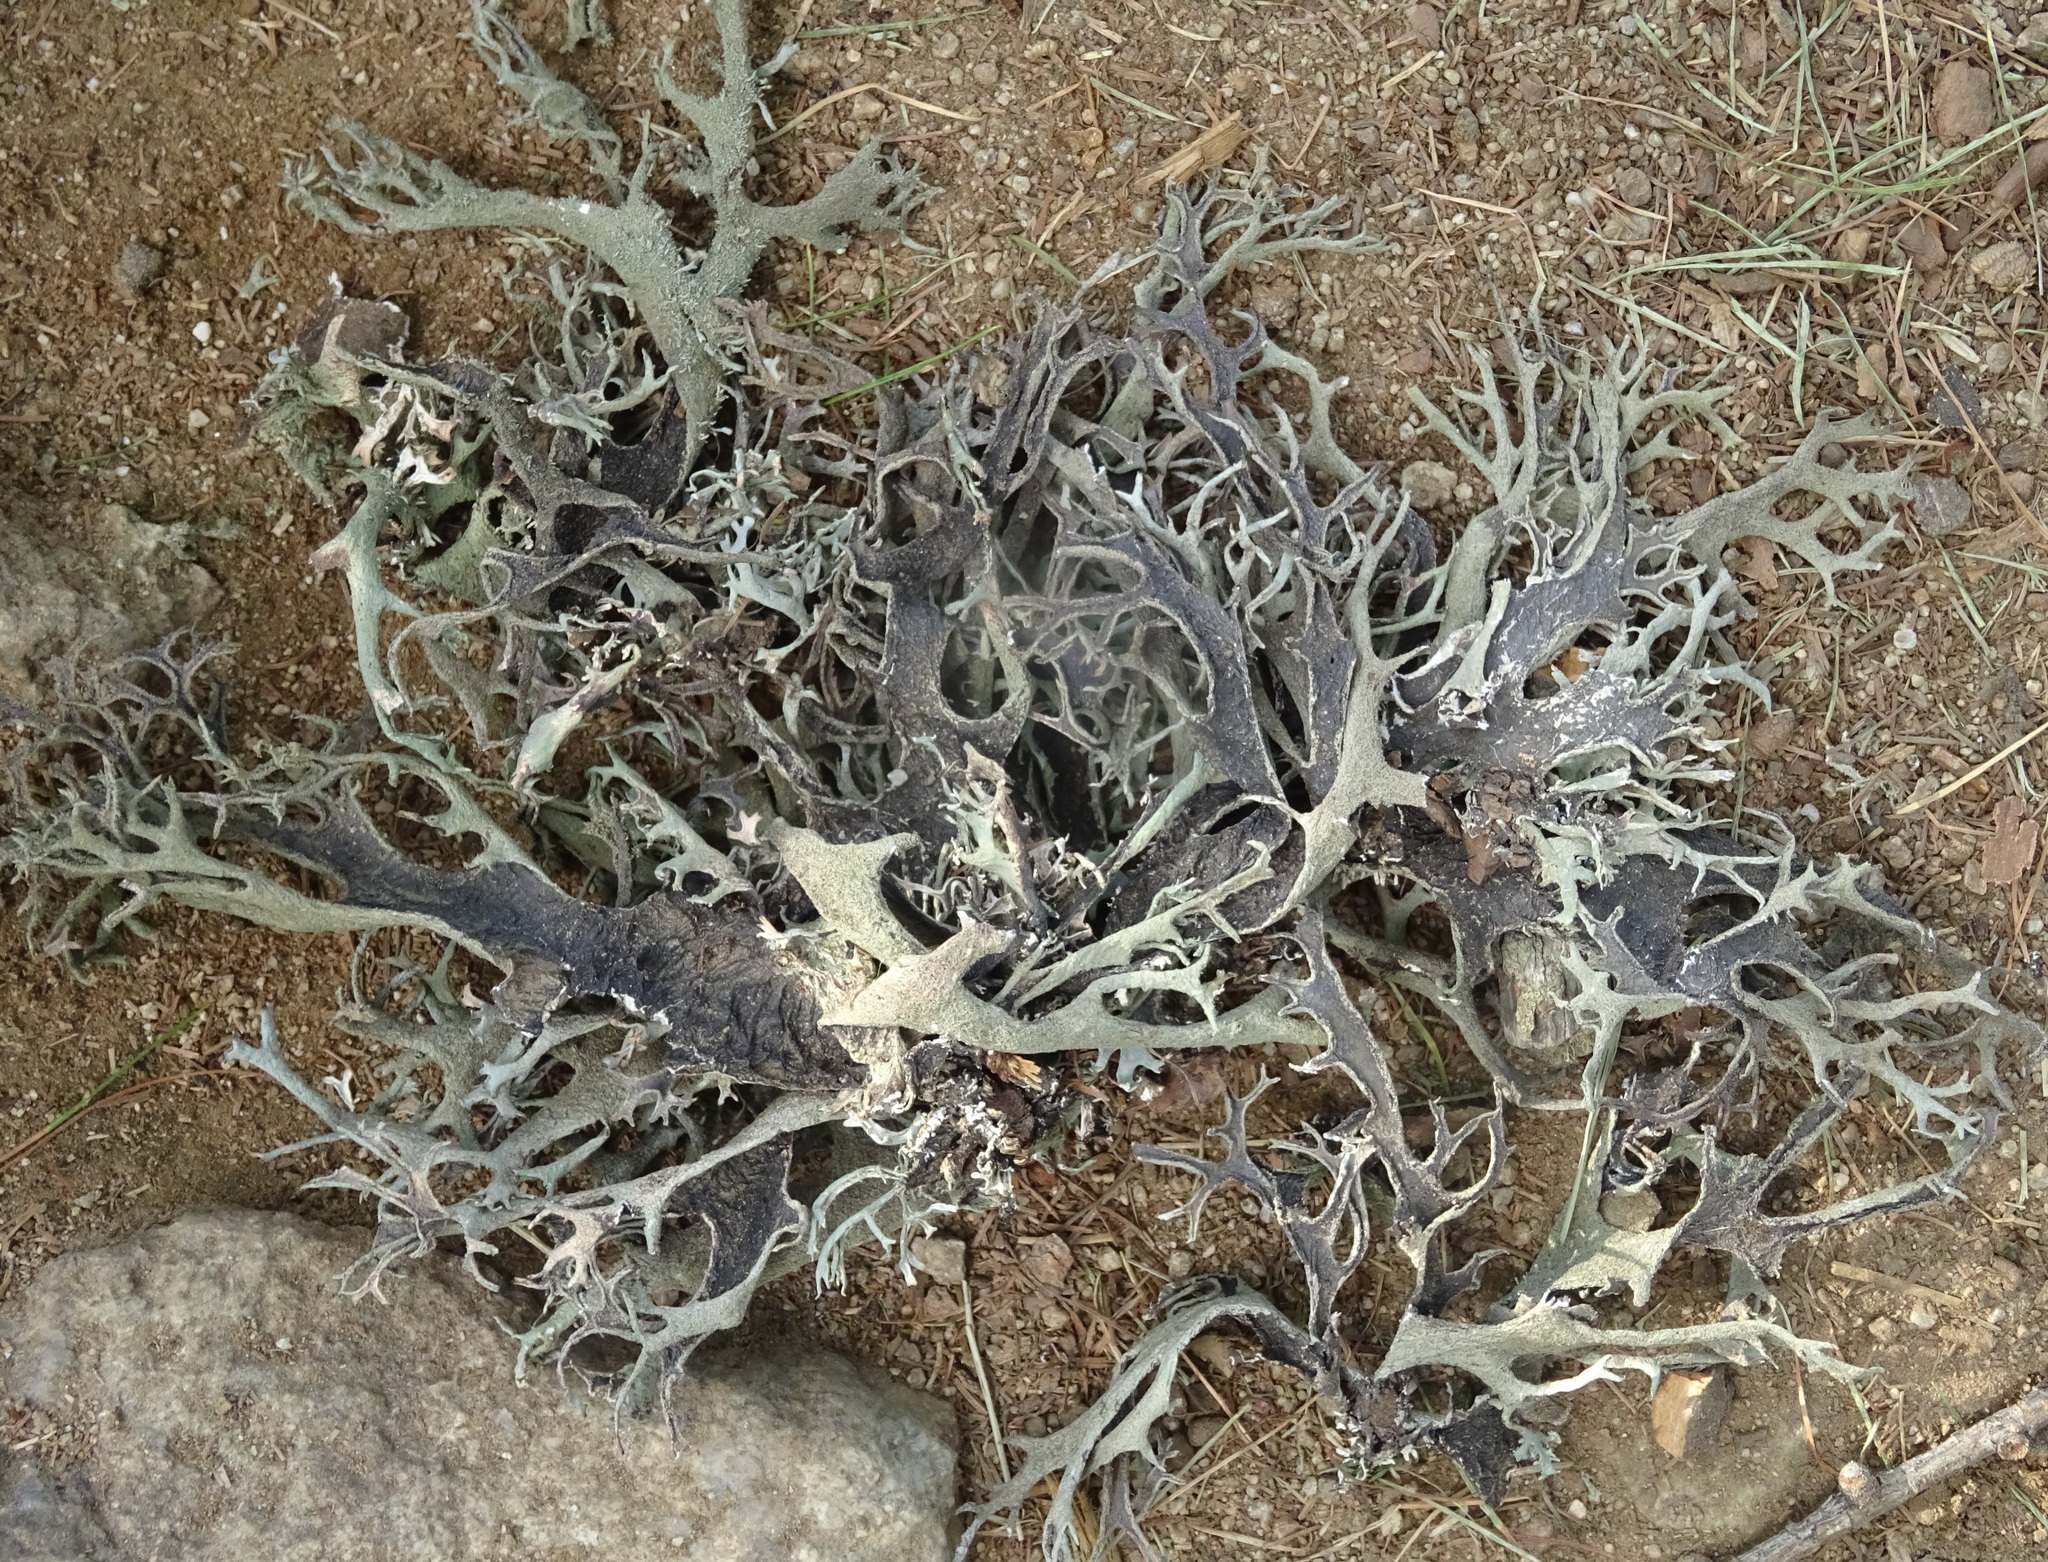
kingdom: Fungi
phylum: Ascomycota
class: Lecanoromycetes
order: Lecanorales
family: Parmeliaceae
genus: Pseudevernia
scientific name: Pseudevernia furfuracea
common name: Tree moss
